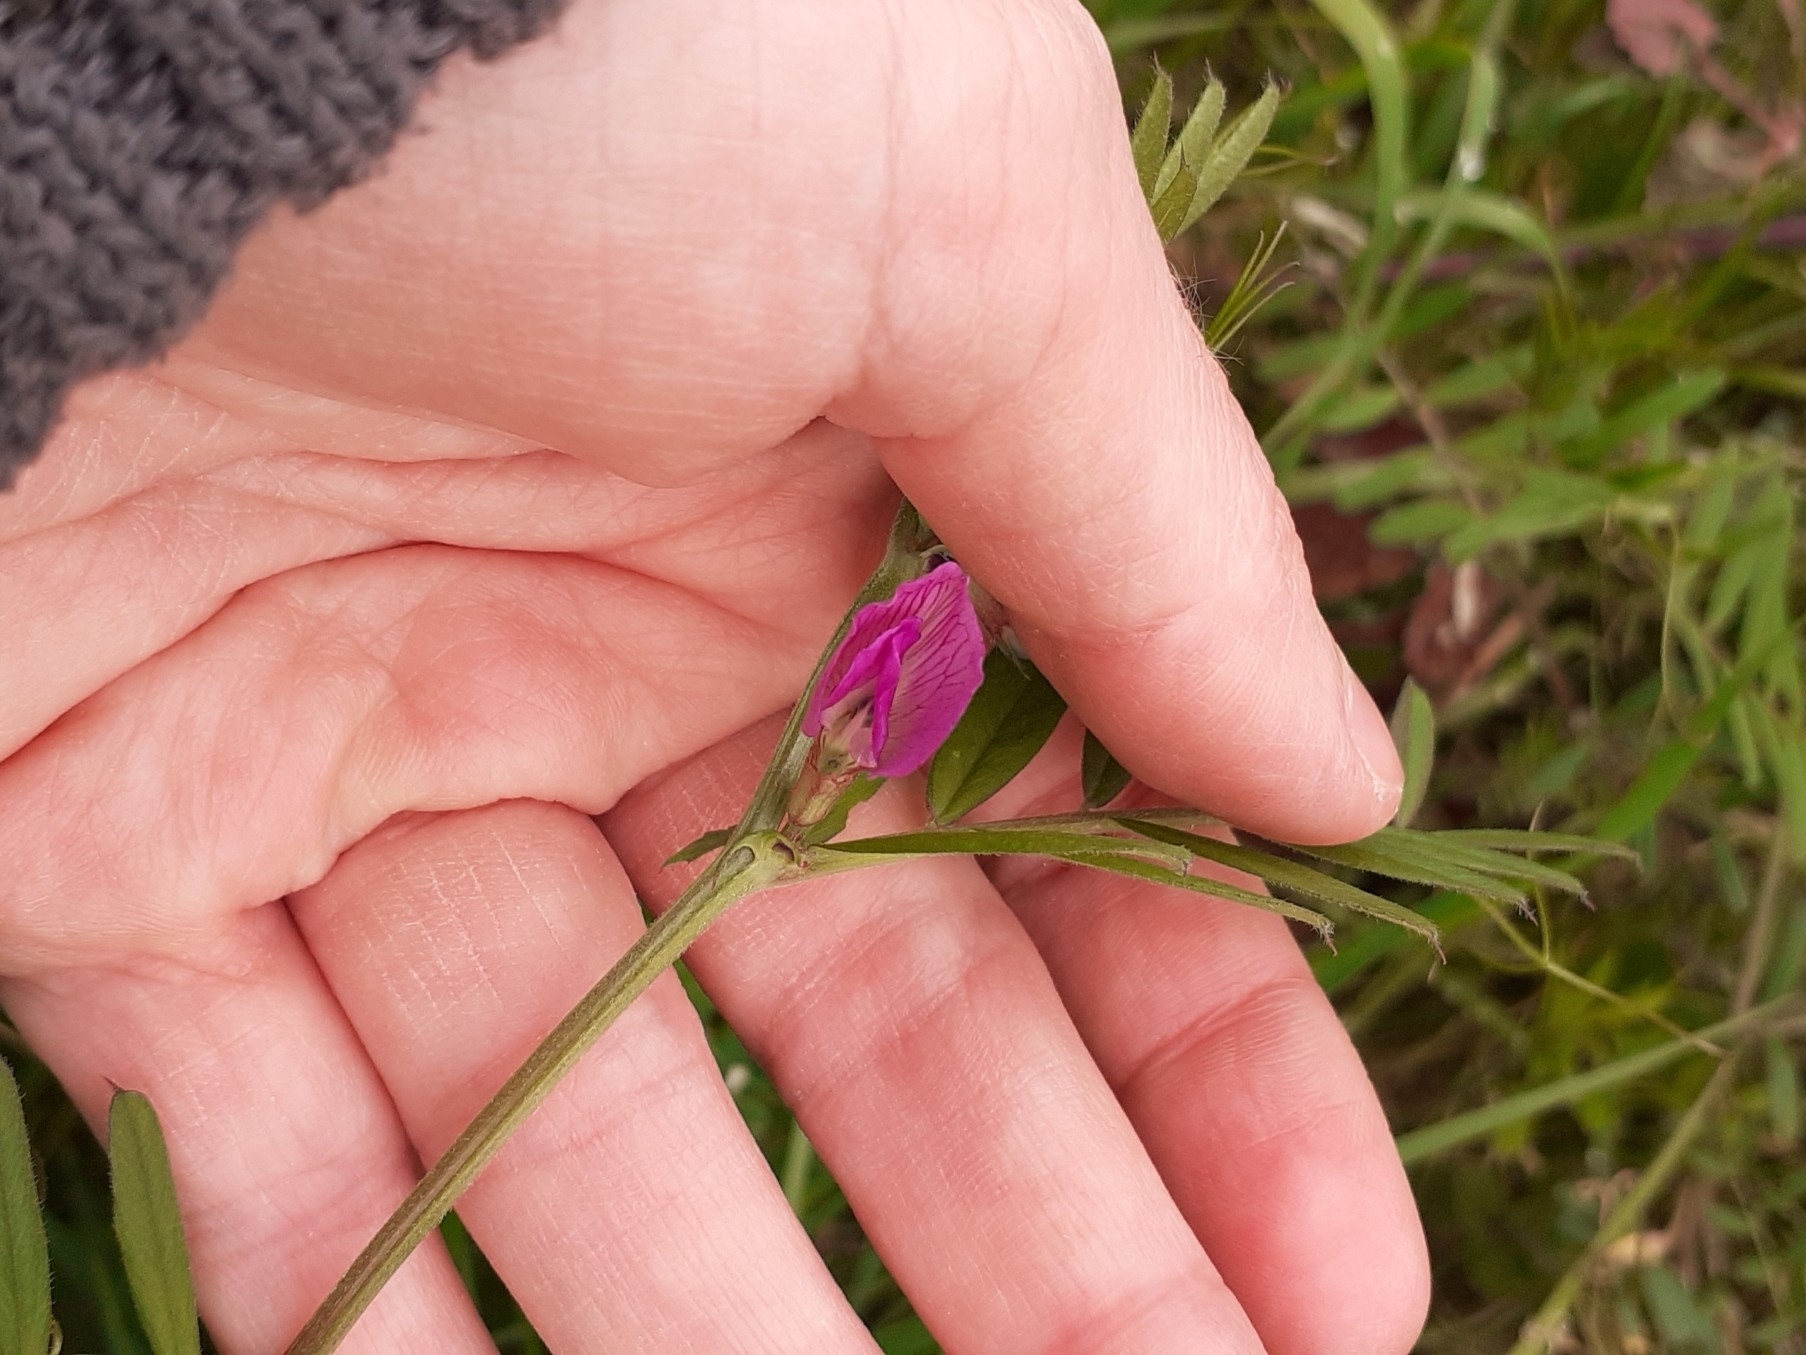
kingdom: Plantae
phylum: Tracheophyta
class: Magnoliopsida
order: Fabales
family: Fabaceae
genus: Vicia
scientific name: Vicia sativa
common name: Garden vetch
